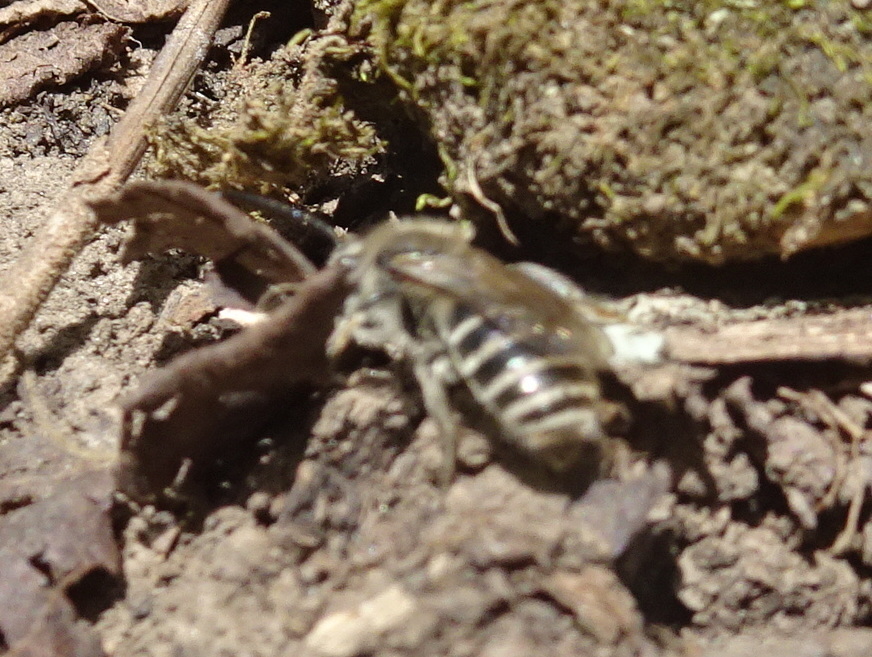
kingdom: Animalia
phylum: Arthropoda
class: Insecta
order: Hymenoptera
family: Colletidae
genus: Colletes
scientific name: Colletes inaequalis
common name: Unequal cellophane bee
